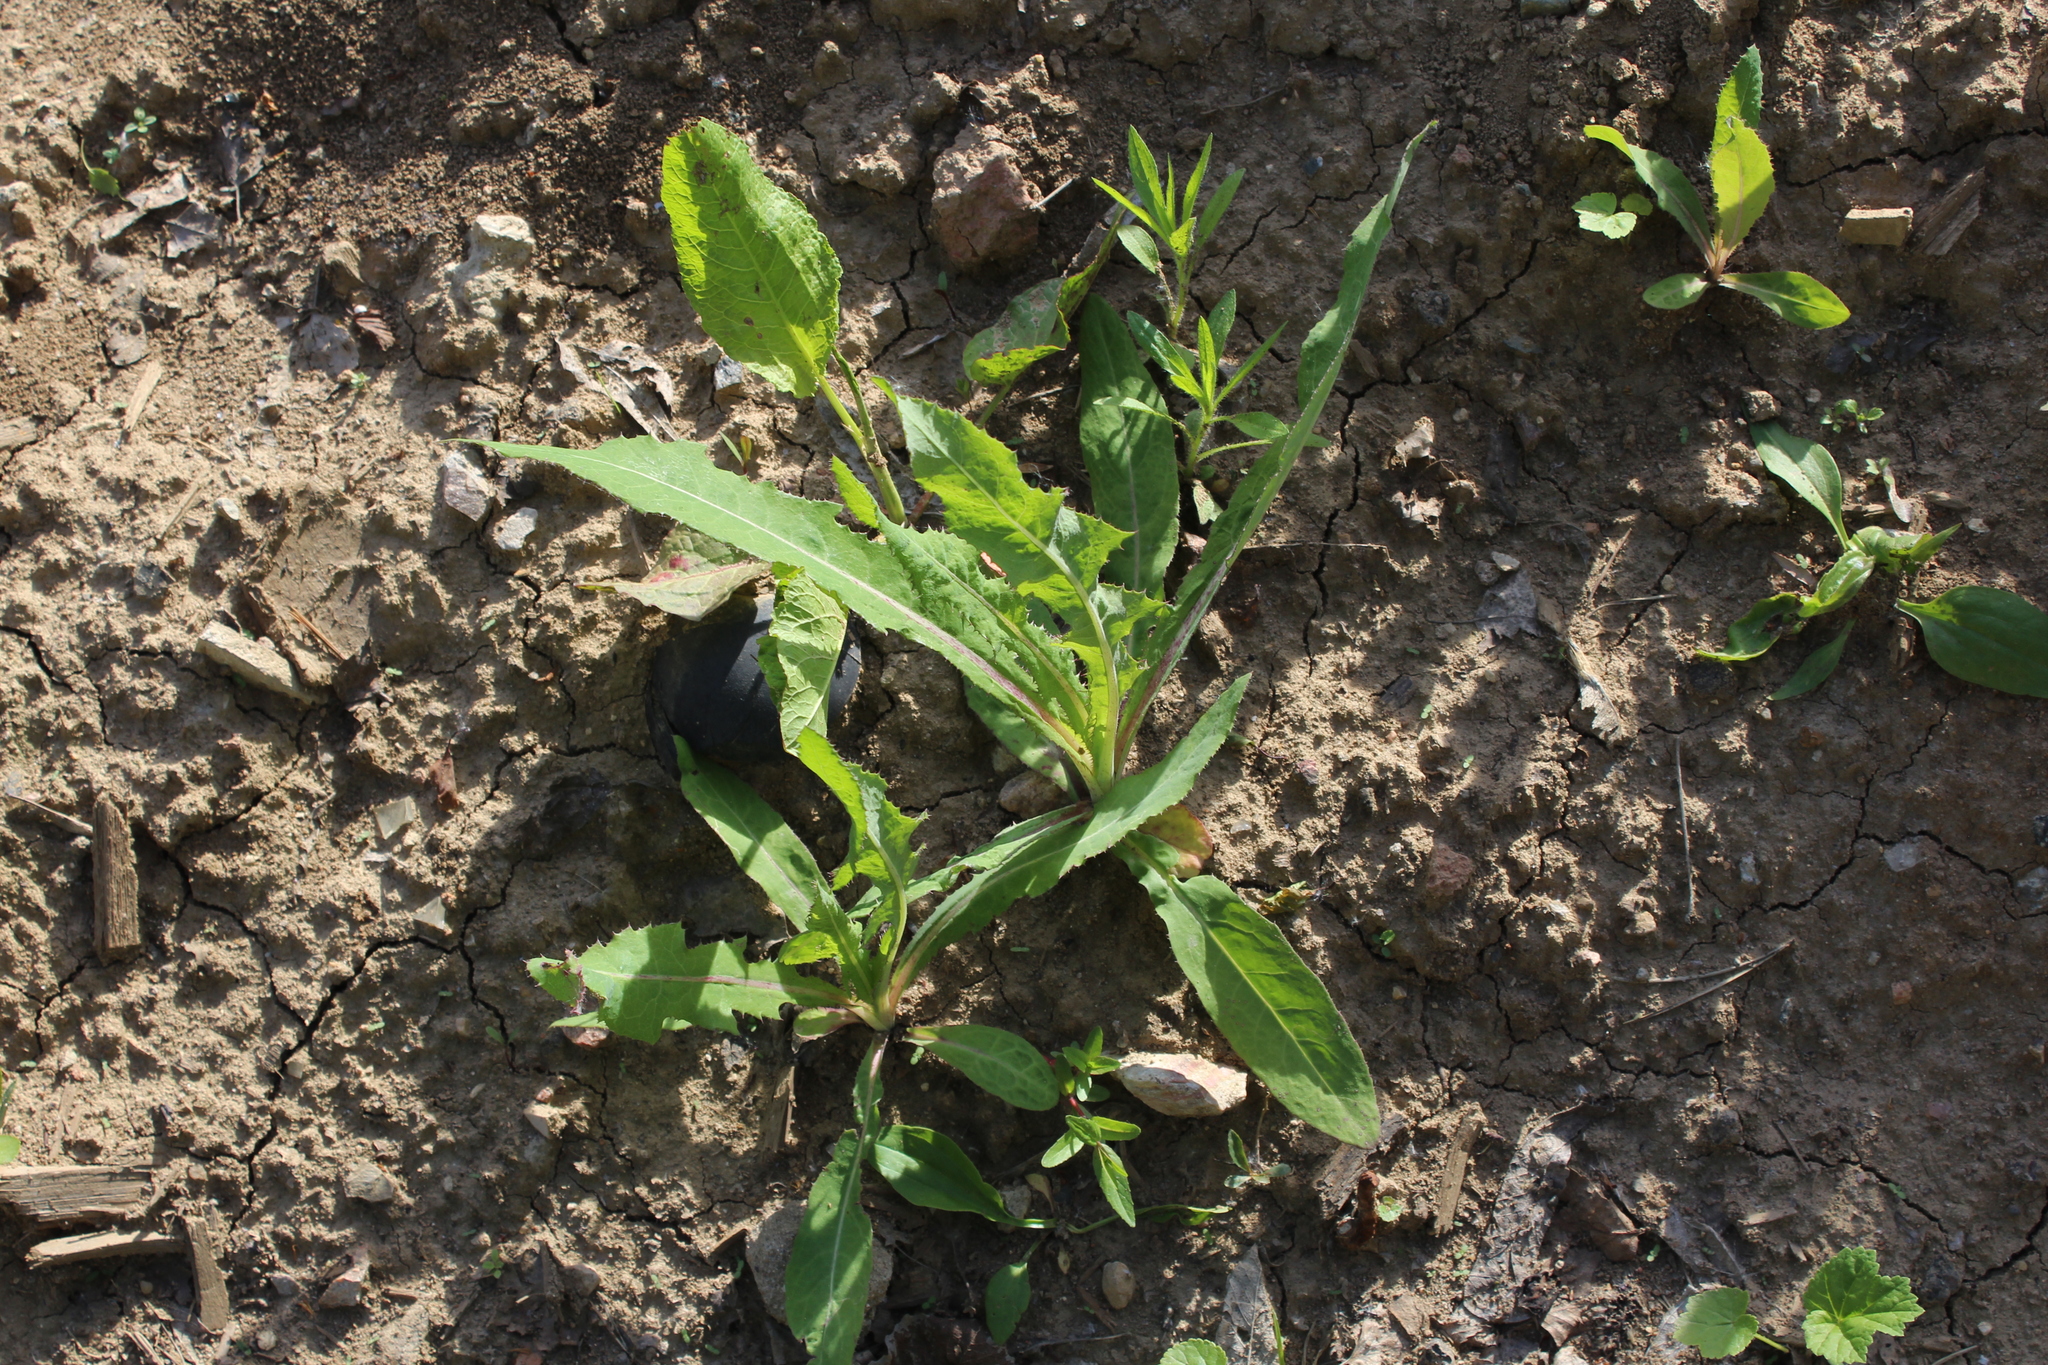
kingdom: Plantae
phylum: Tracheophyta
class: Magnoliopsida
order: Asterales
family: Asteraceae
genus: Sonchus
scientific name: Sonchus arvensis
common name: Perennial sow-thistle
